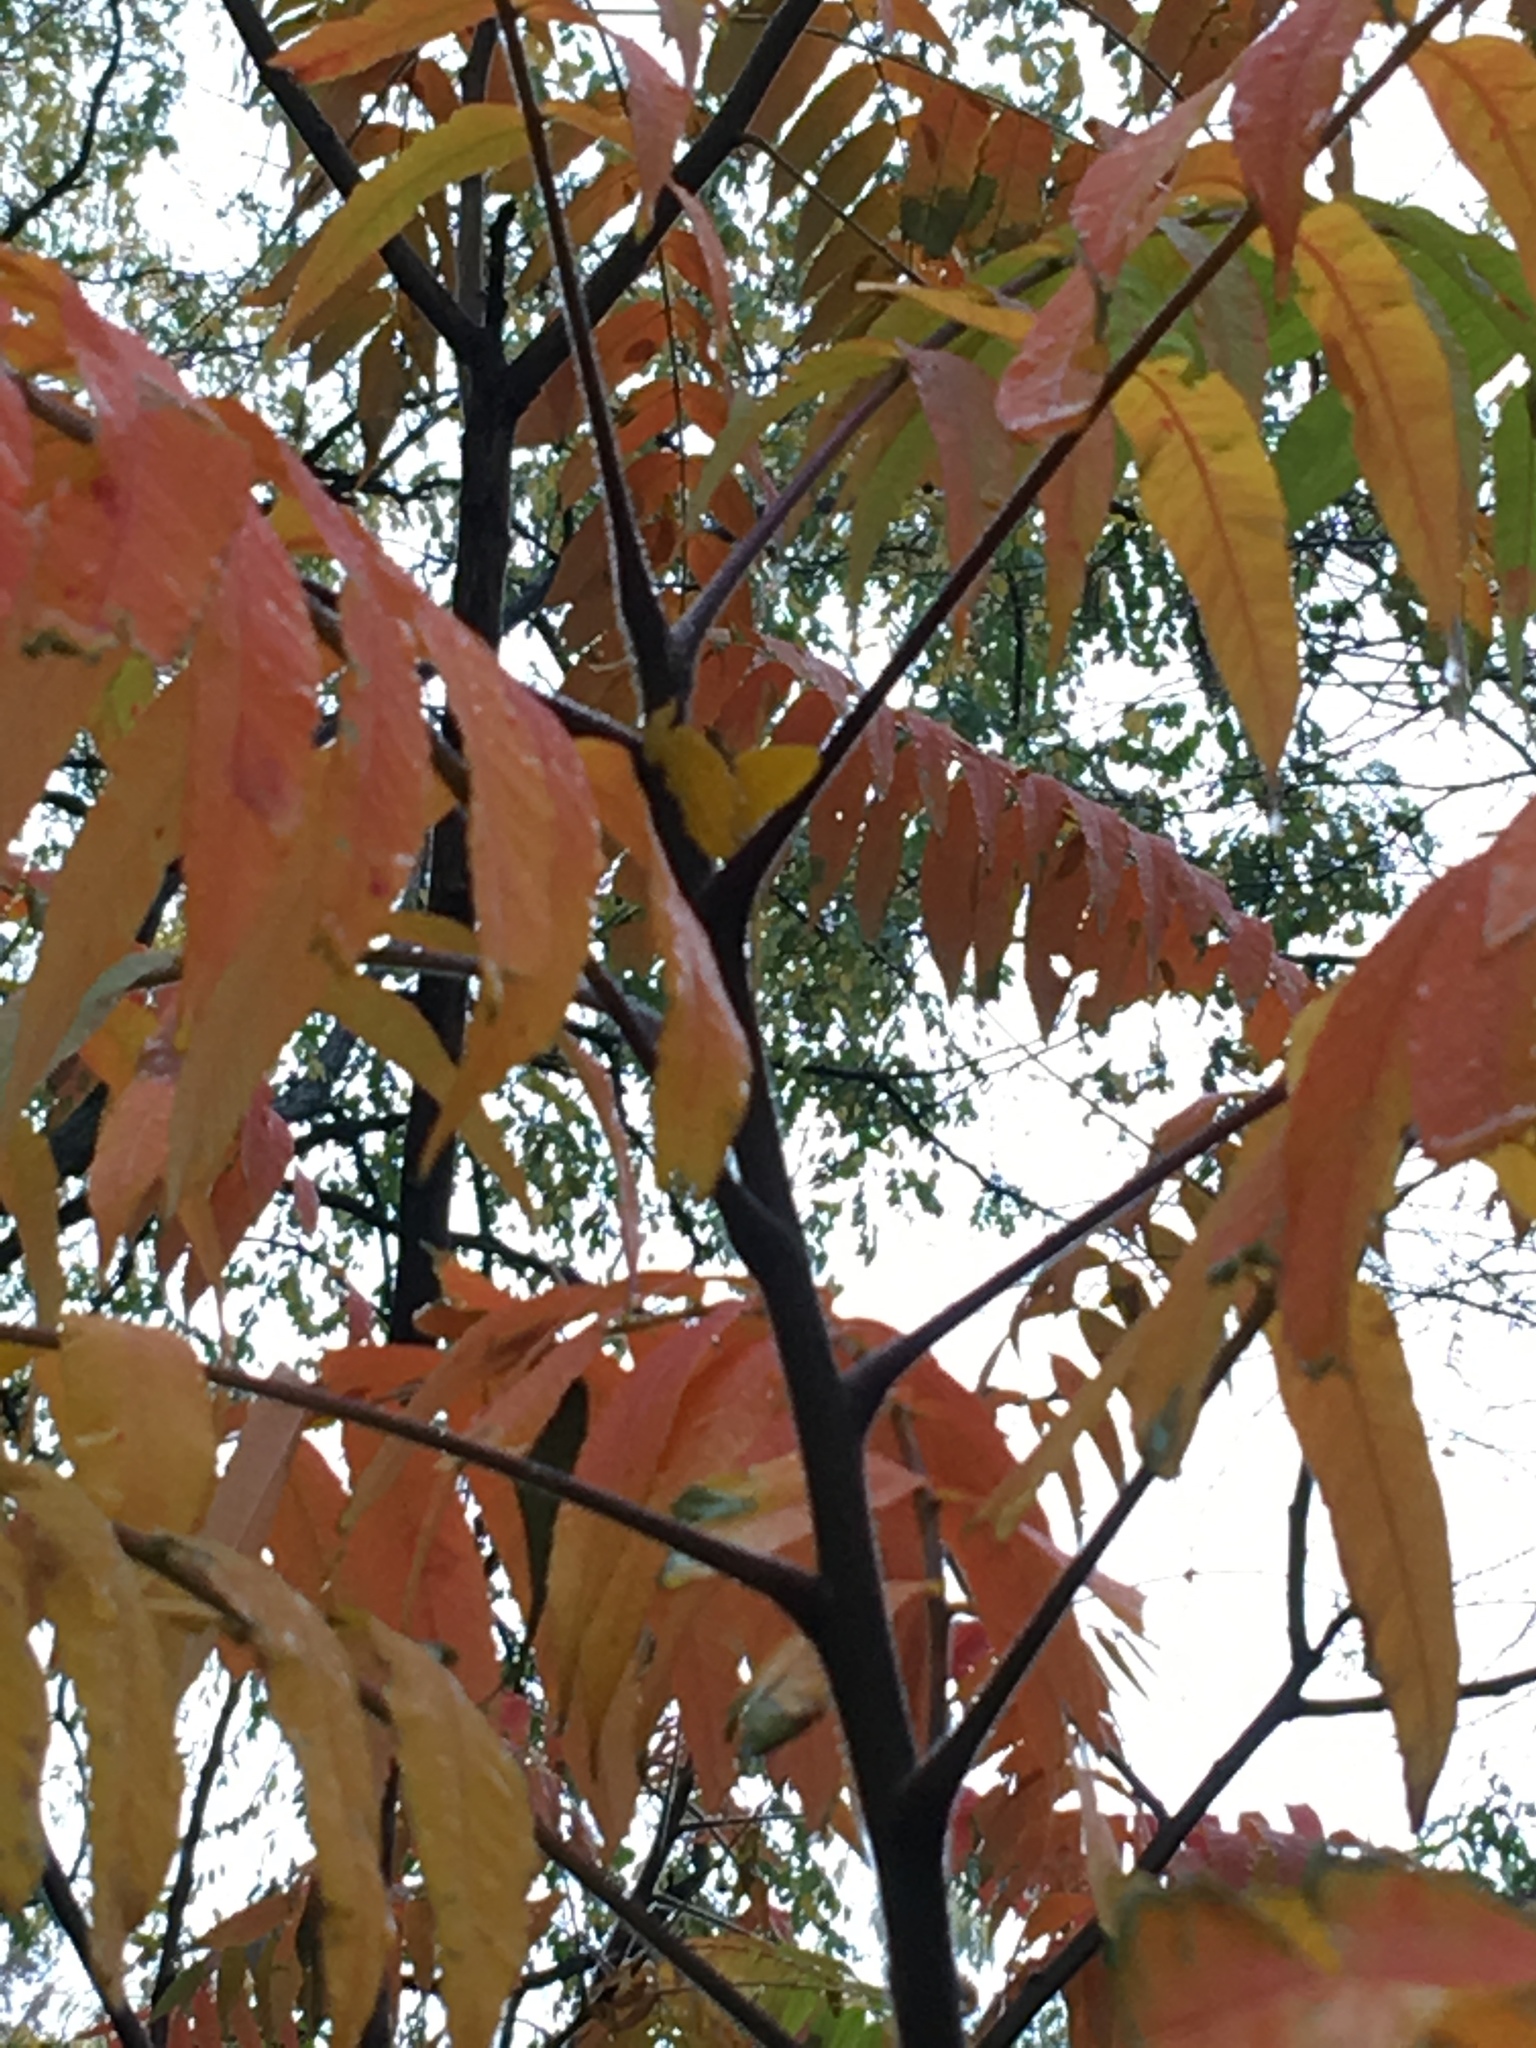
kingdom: Plantae
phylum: Tracheophyta
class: Magnoliopsida
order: Sapindales
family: Anacardiaceae
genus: Rhus
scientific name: Rhus typhina
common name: Staghorn sumac
